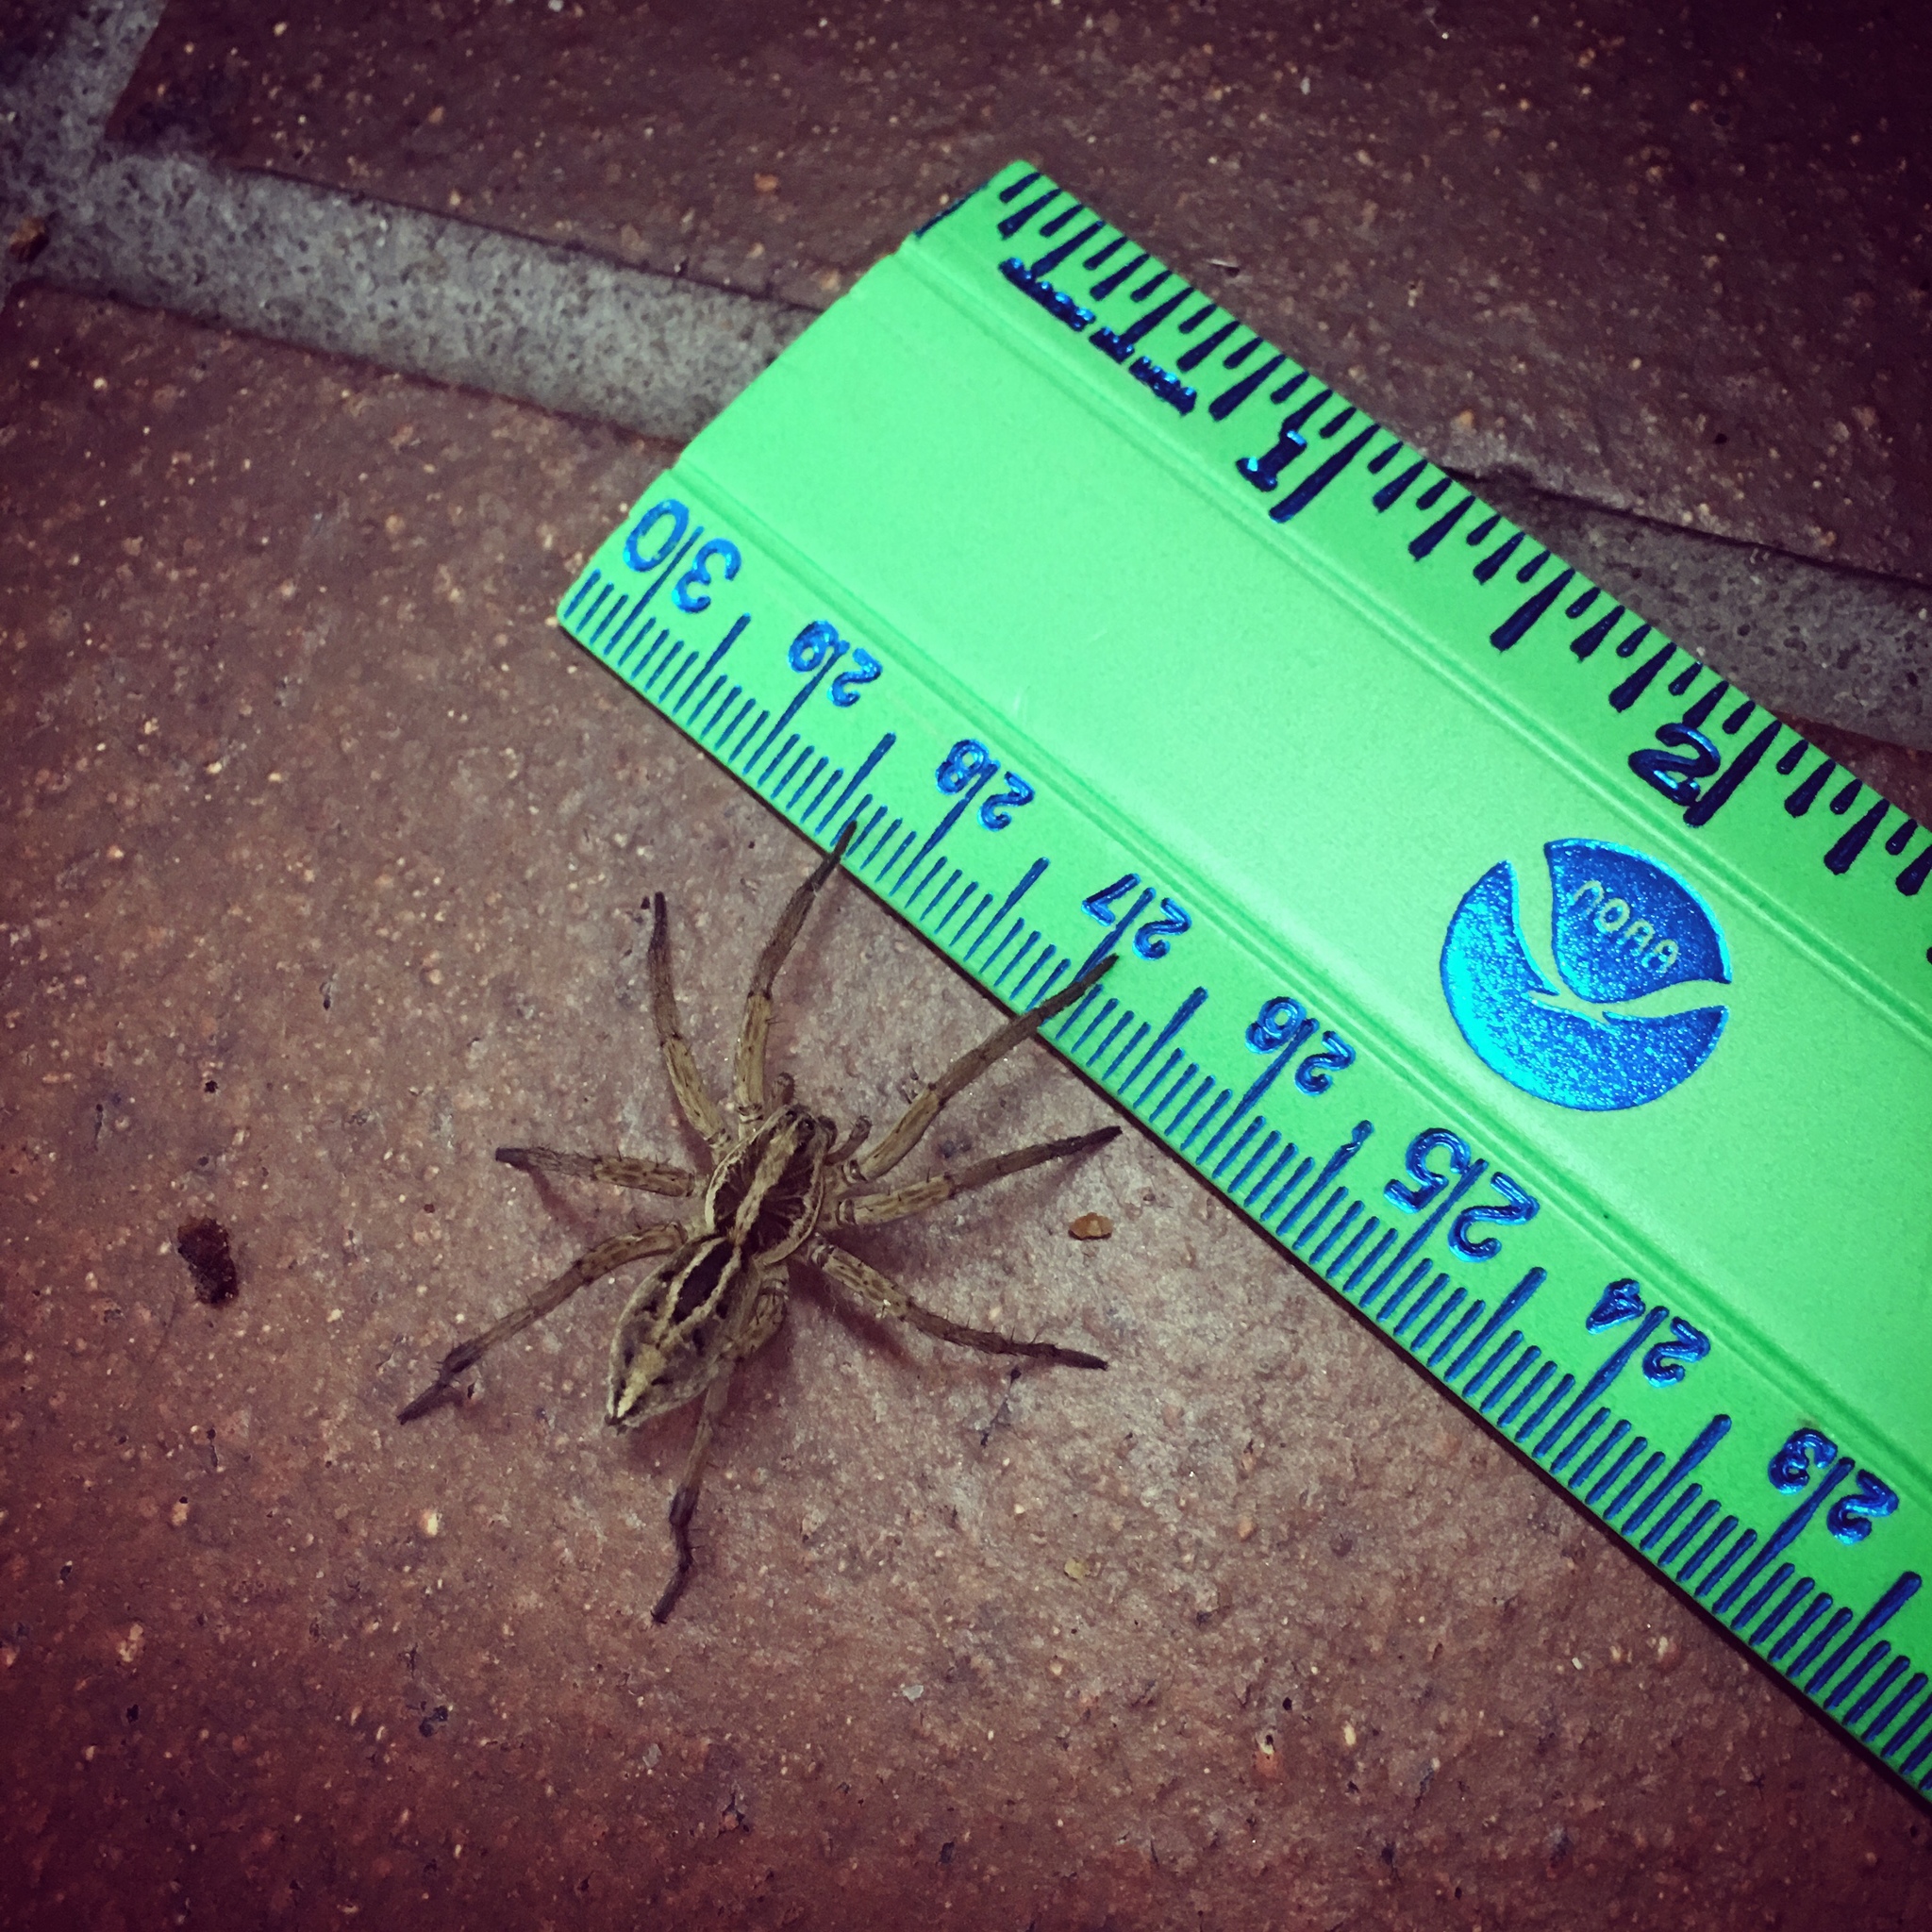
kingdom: Animalia
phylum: Arthropoda
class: Arachnida
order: Araneae
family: Lycosidae
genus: Schizocosa
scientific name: Schizocosa mccooki
